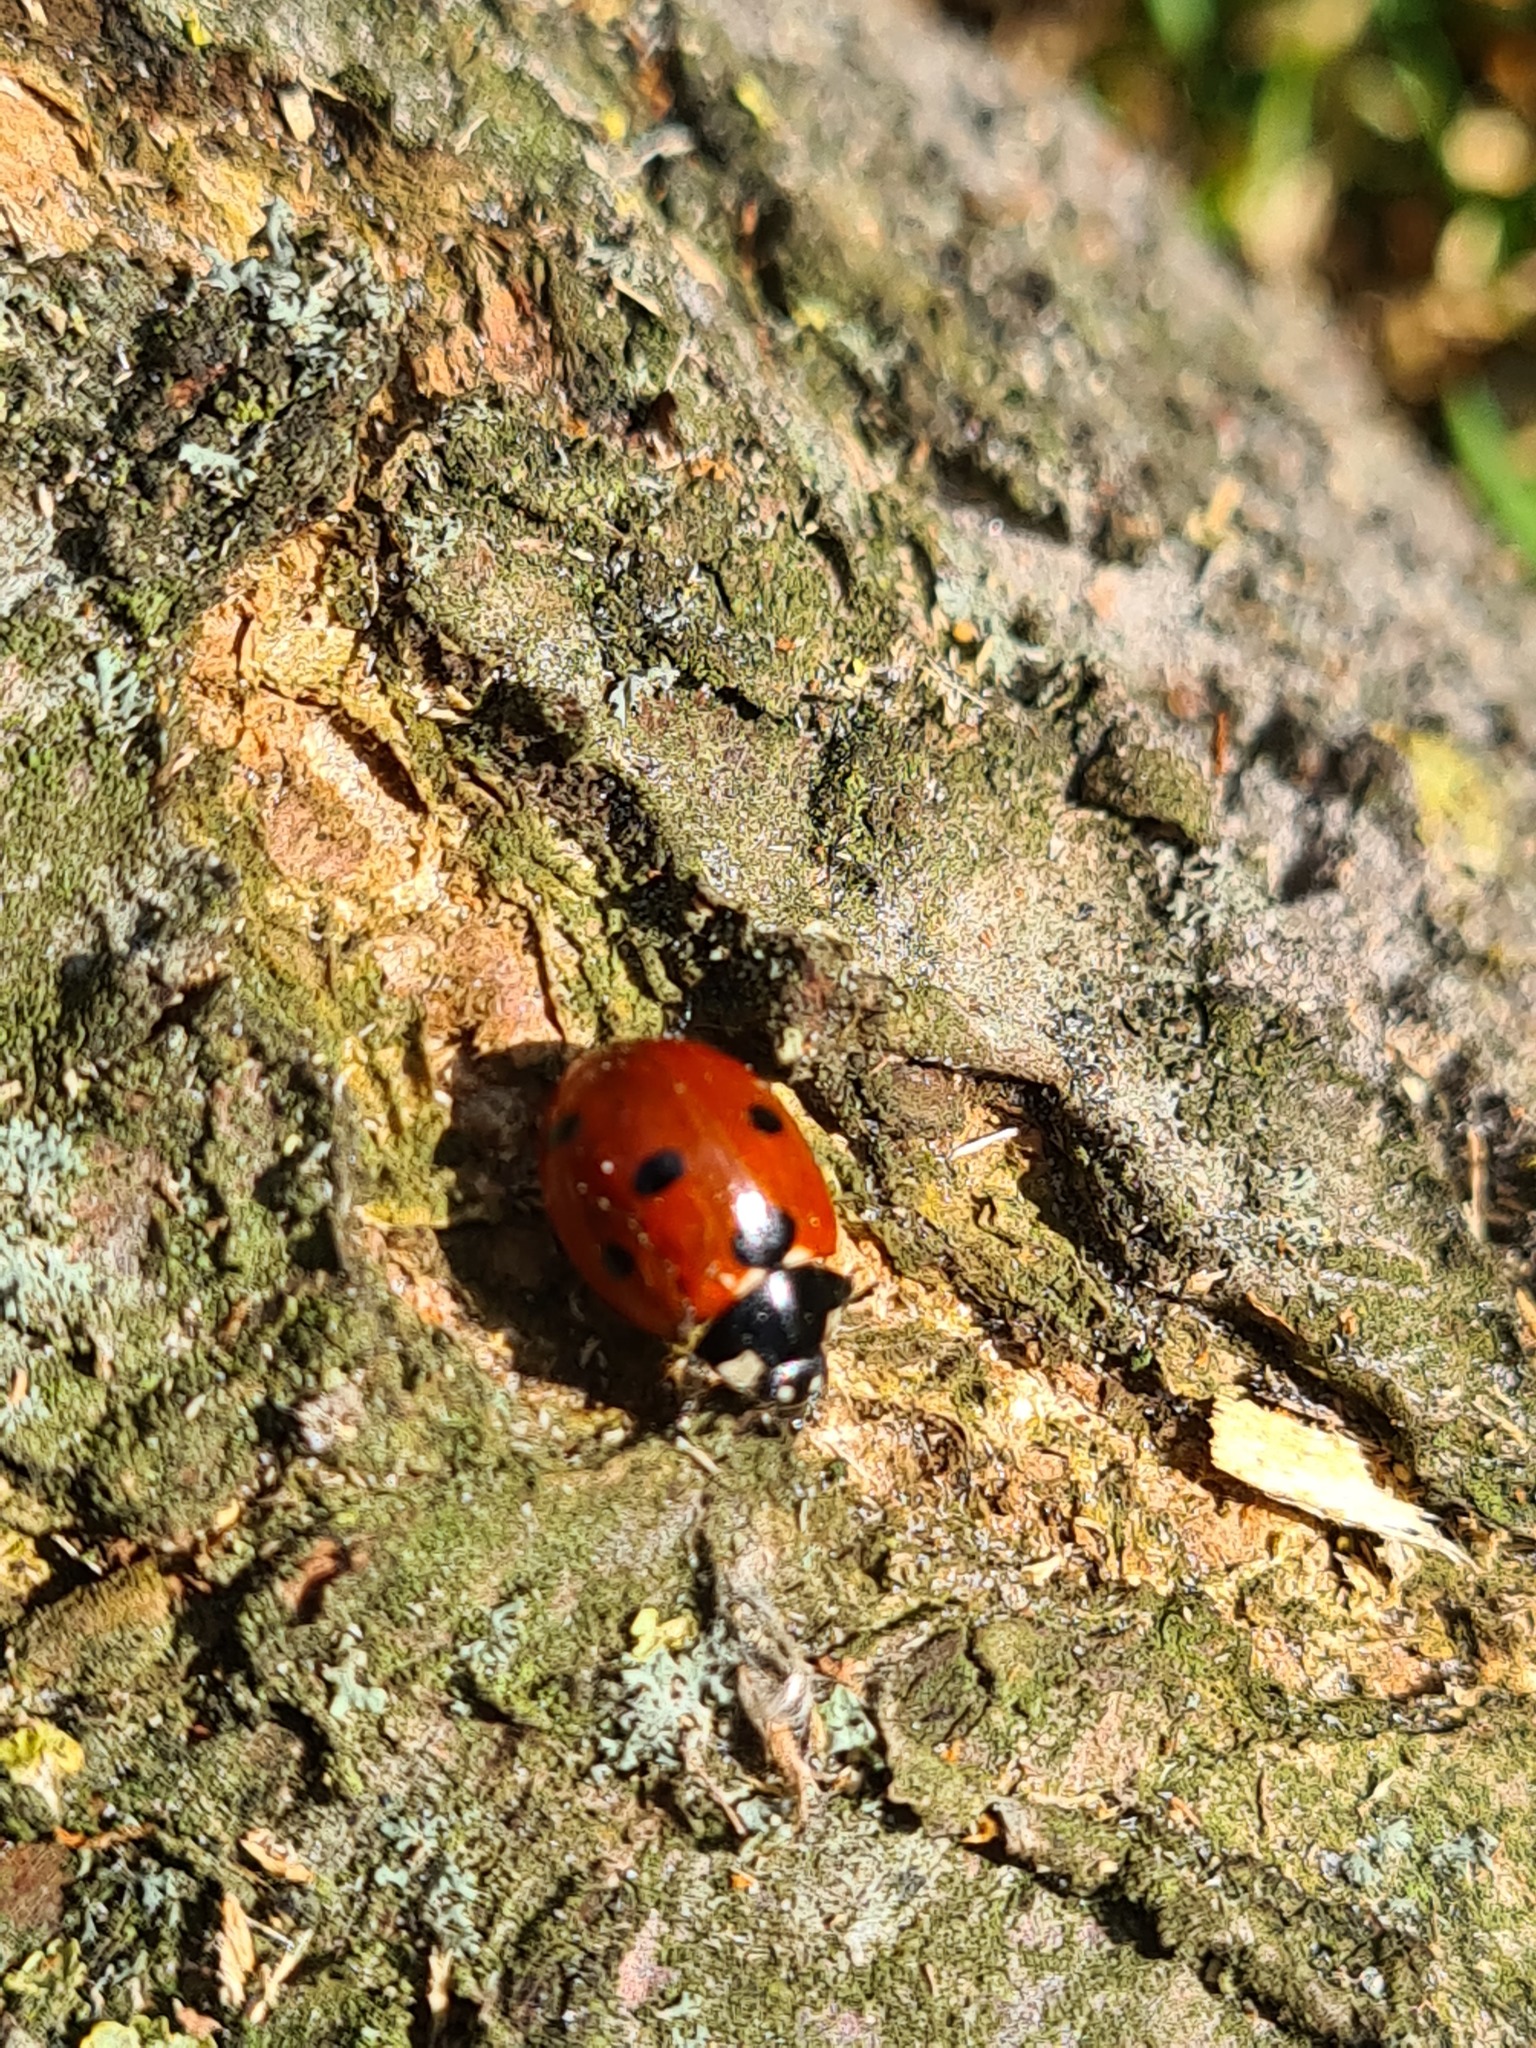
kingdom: Animalia
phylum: Arthropoda
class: Insecta
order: Coleoptera
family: Coccinellidae
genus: Coccinella
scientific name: Coccinella septempunctata
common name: Sevenspotted lady beetle
